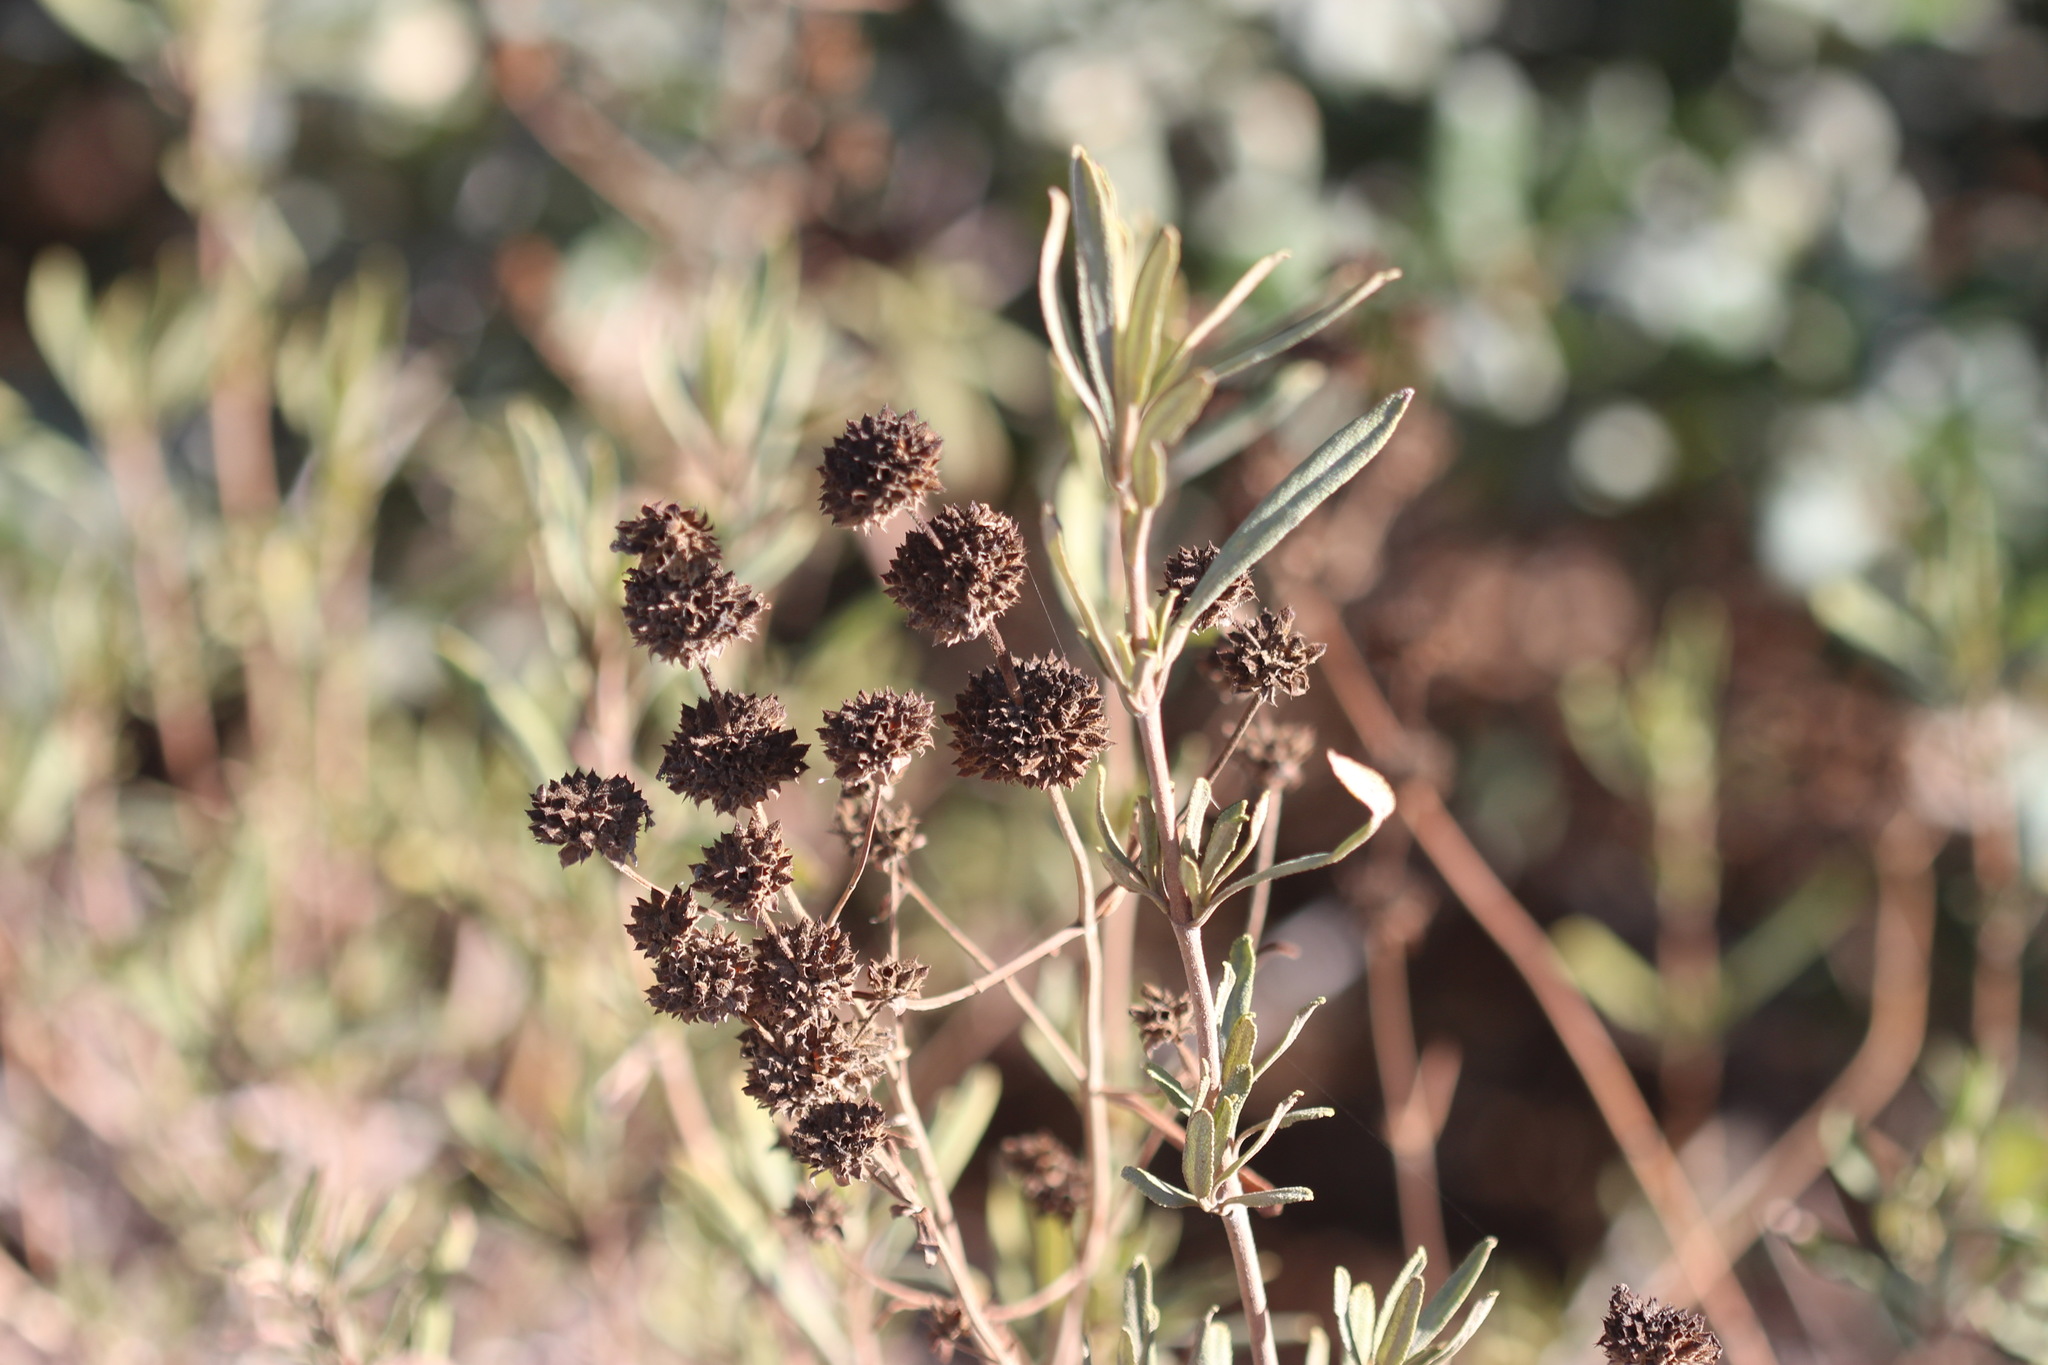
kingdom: Plantae
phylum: Tracheophyta
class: Magnoliopsida
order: Lamiales
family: Lamiaceae
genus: Salvia
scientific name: Salvia mellifera
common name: Black sage
